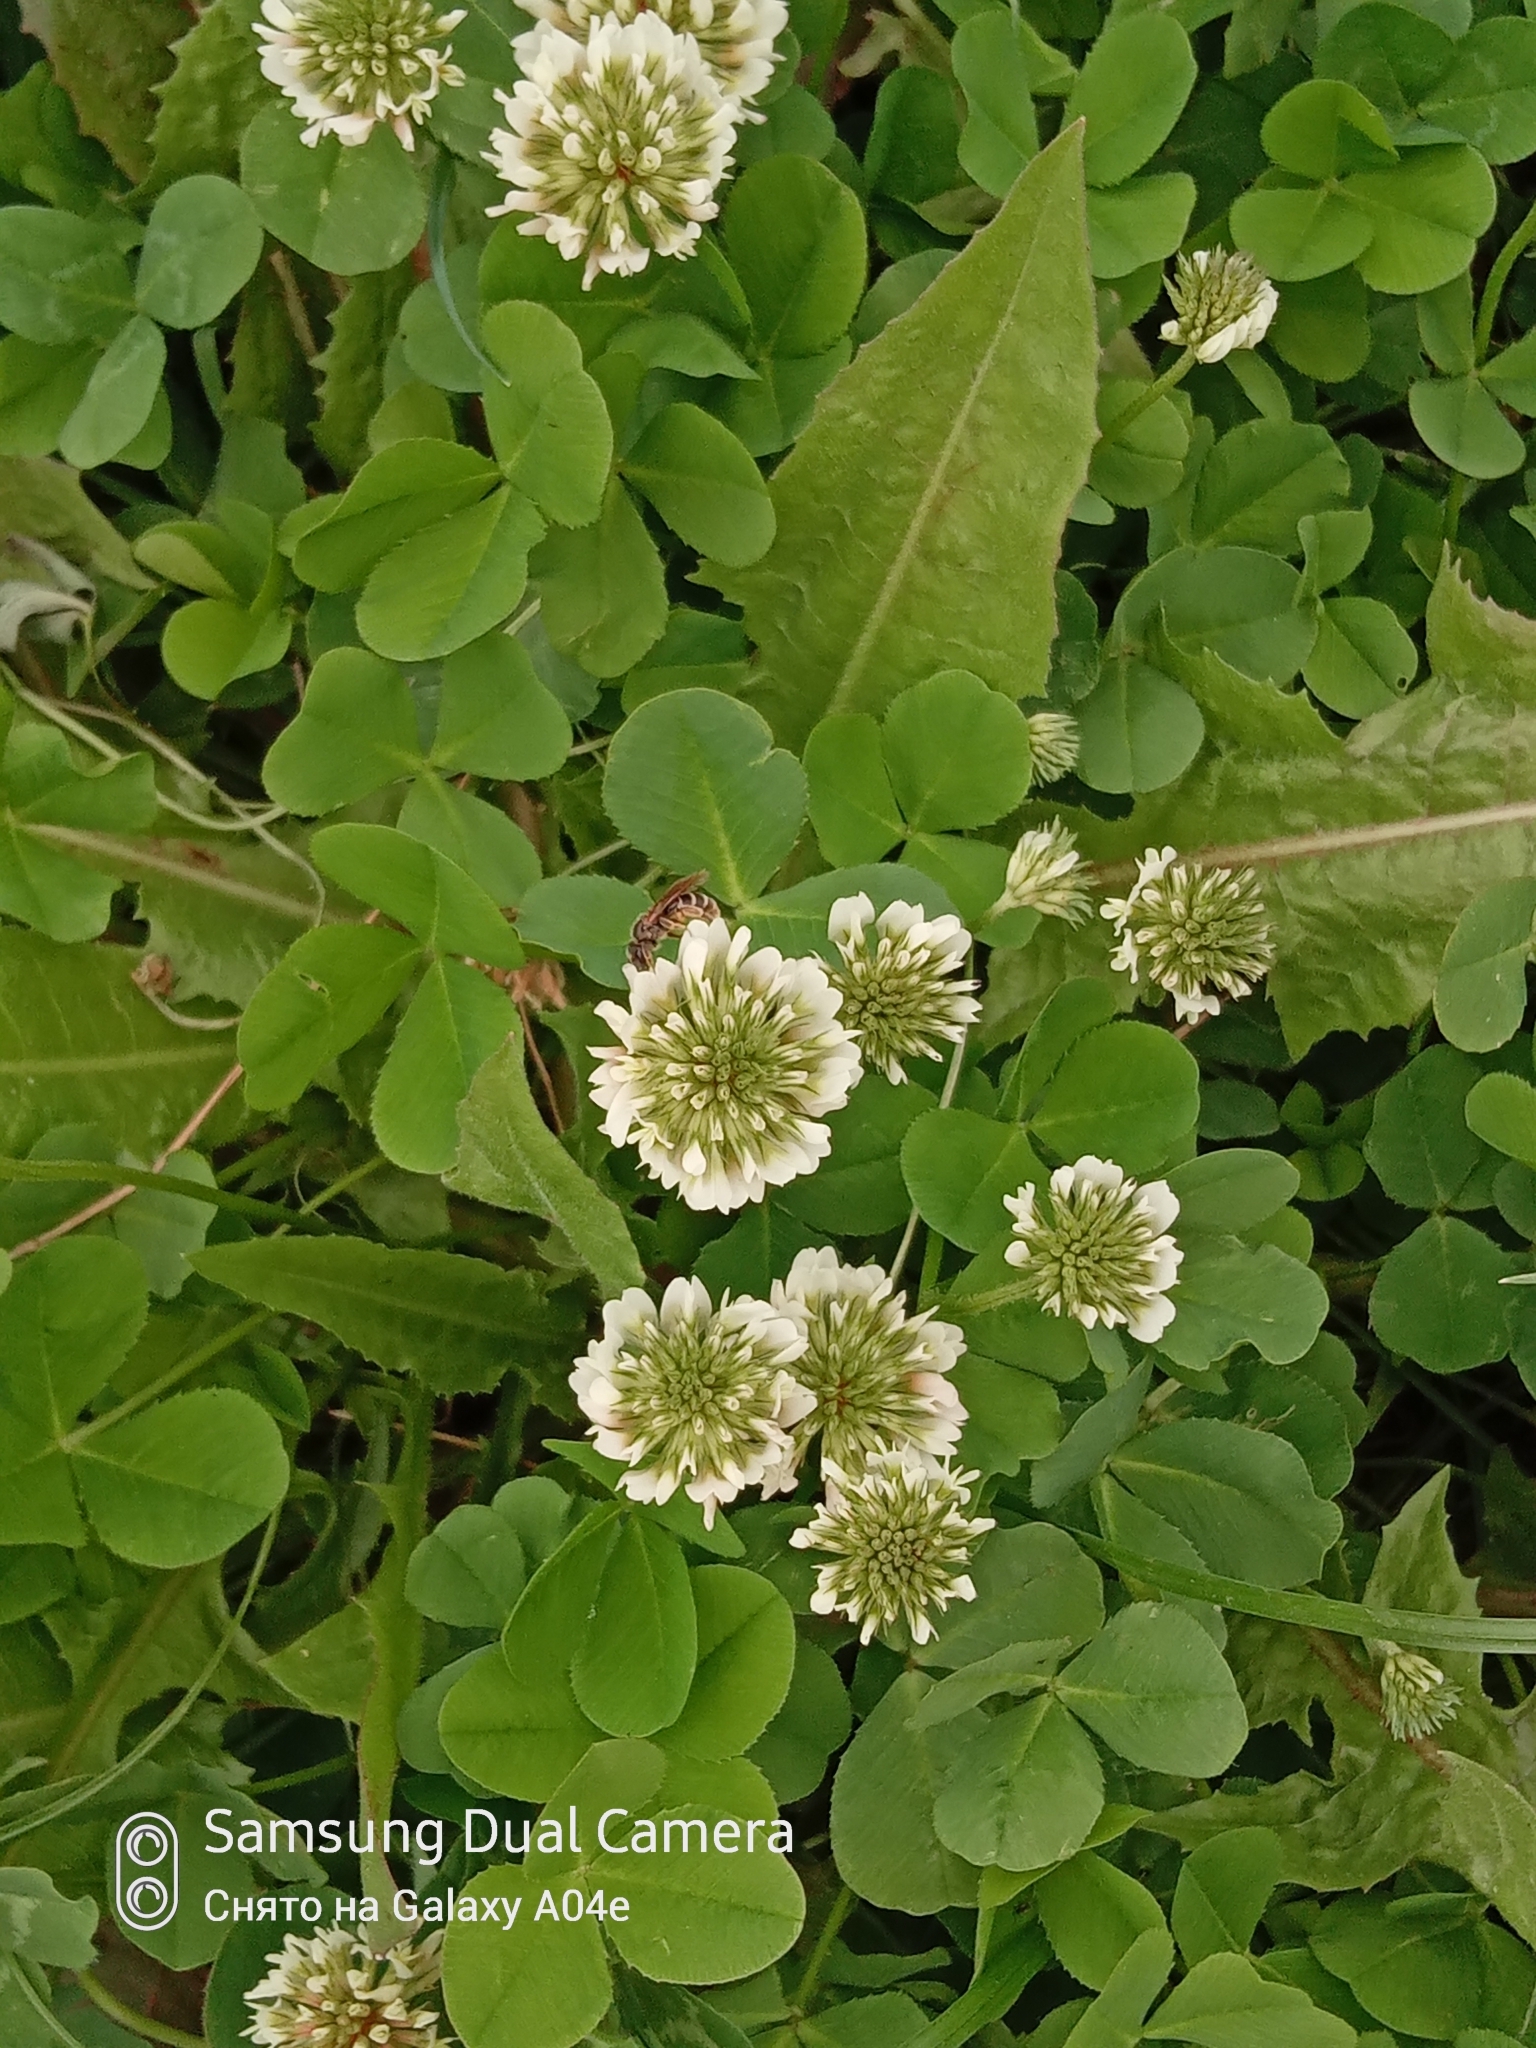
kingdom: Plantae
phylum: Tracheophyta
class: Magnoliopsida
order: Fabales
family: Fabaceae
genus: Trifolium
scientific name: Trifolium repens
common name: White clover
